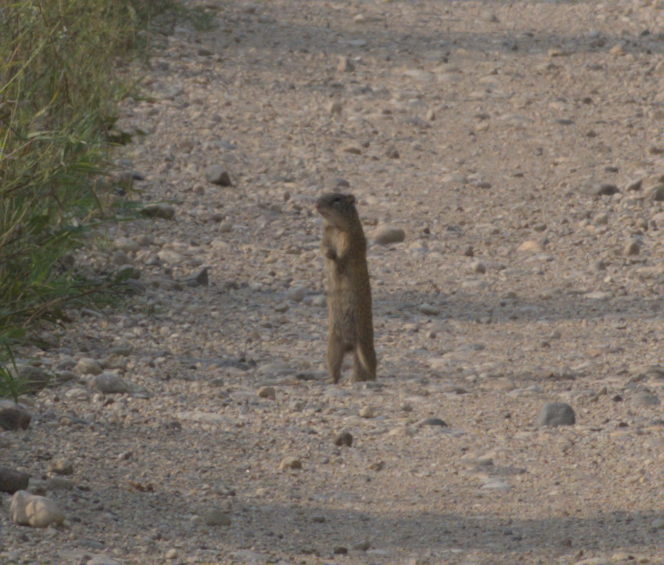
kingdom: Animalia
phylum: Chordata
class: Mammalia
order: Rodentia
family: Sciuridae
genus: Poliocitellus
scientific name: Poliocitellus franklinii
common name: Franklin's ground squirrel
